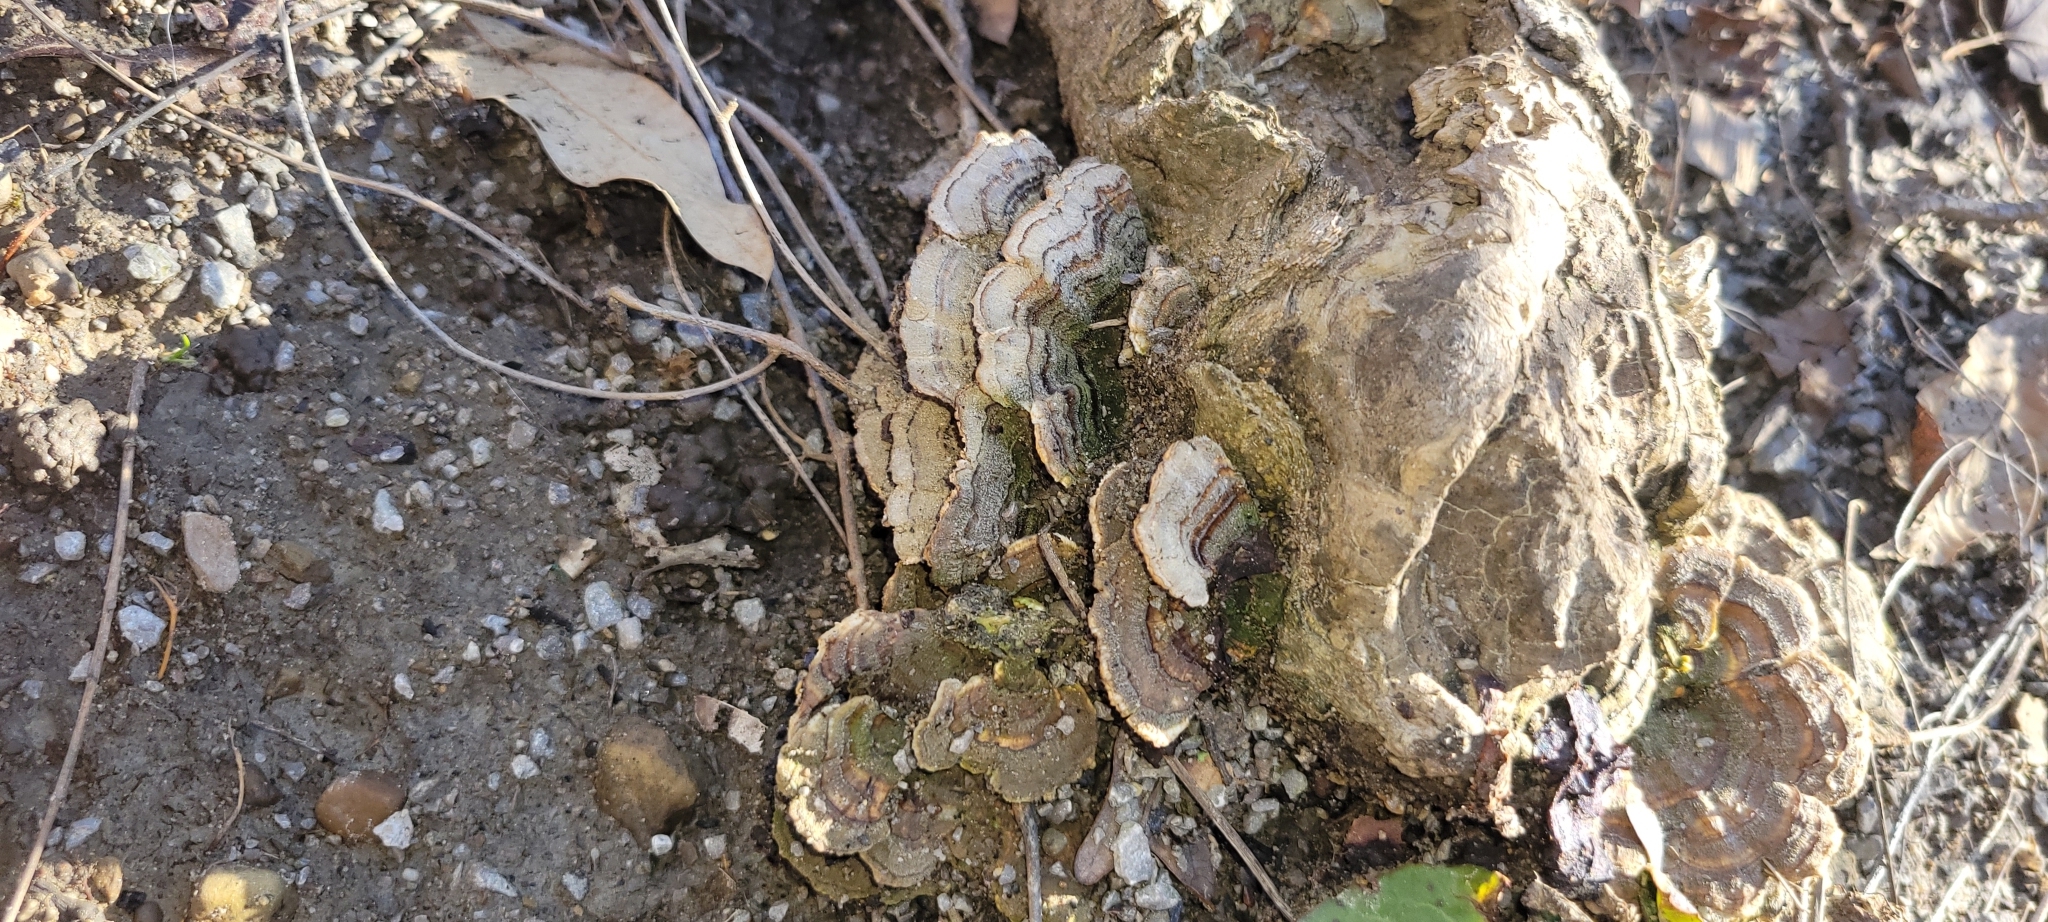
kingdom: Fungi
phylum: Basidiomycota
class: Agaricomycetes
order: Polyporales
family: Polyporaceae
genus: Trametes
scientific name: Trametes versicolor
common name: Turkeytail
